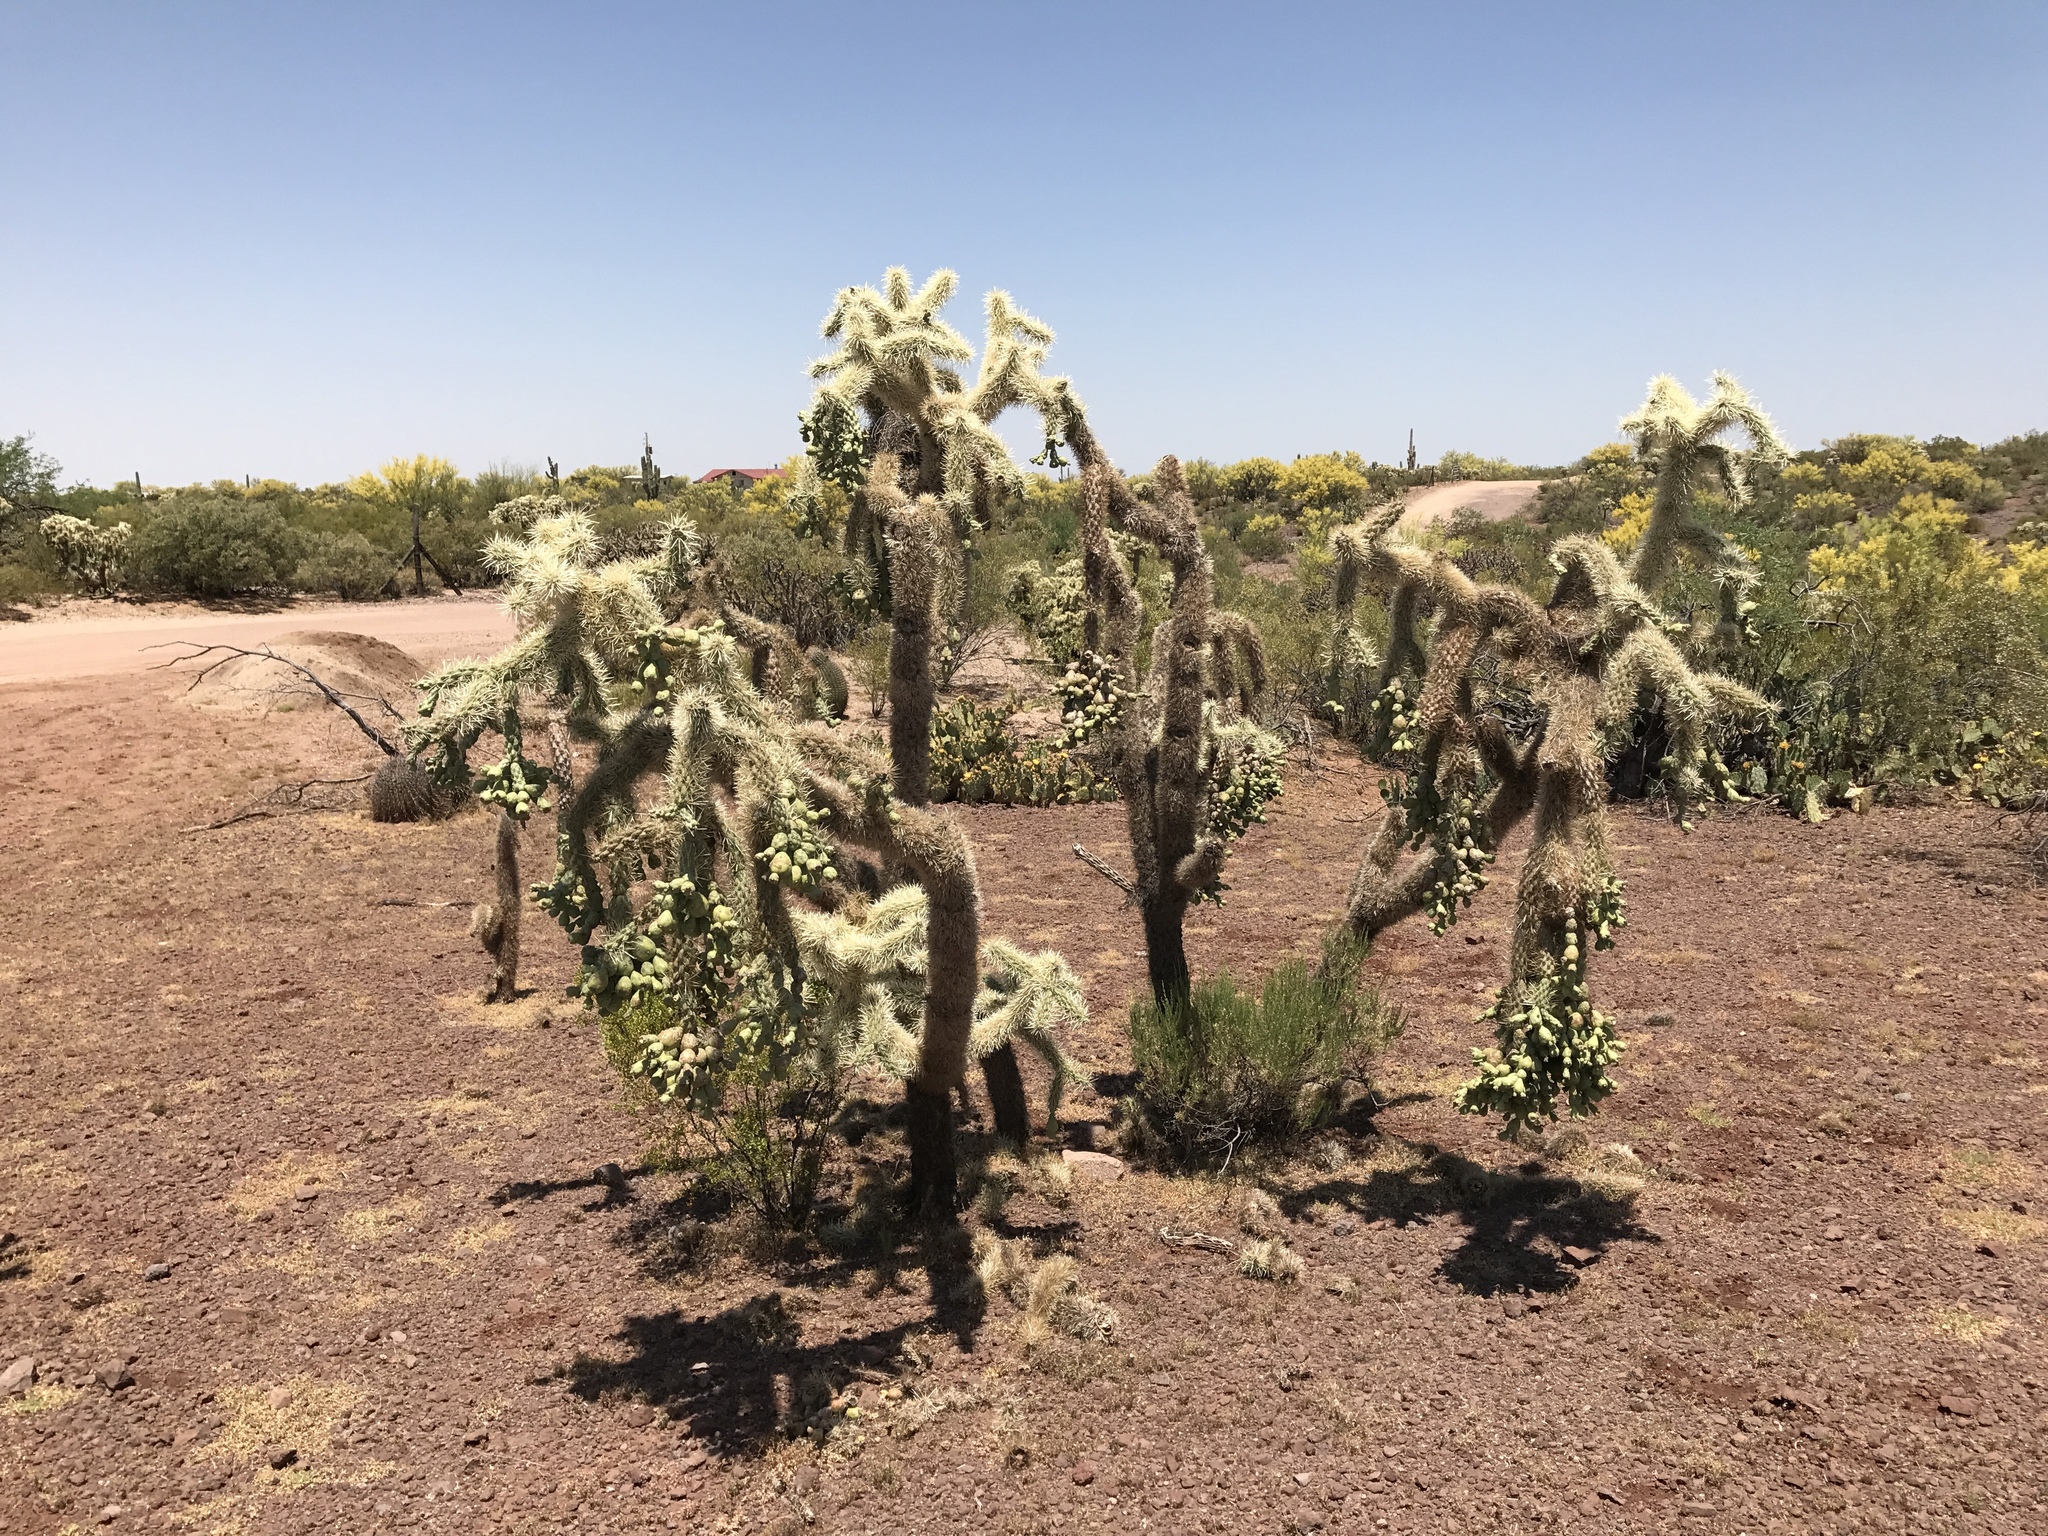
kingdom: Plantae
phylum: Tracheophyta
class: Magnoliopsida
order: Caryophyllales
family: Cactaceae
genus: Cylindropuntia
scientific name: Cylindropuntia fulgida
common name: Jumping cholla
